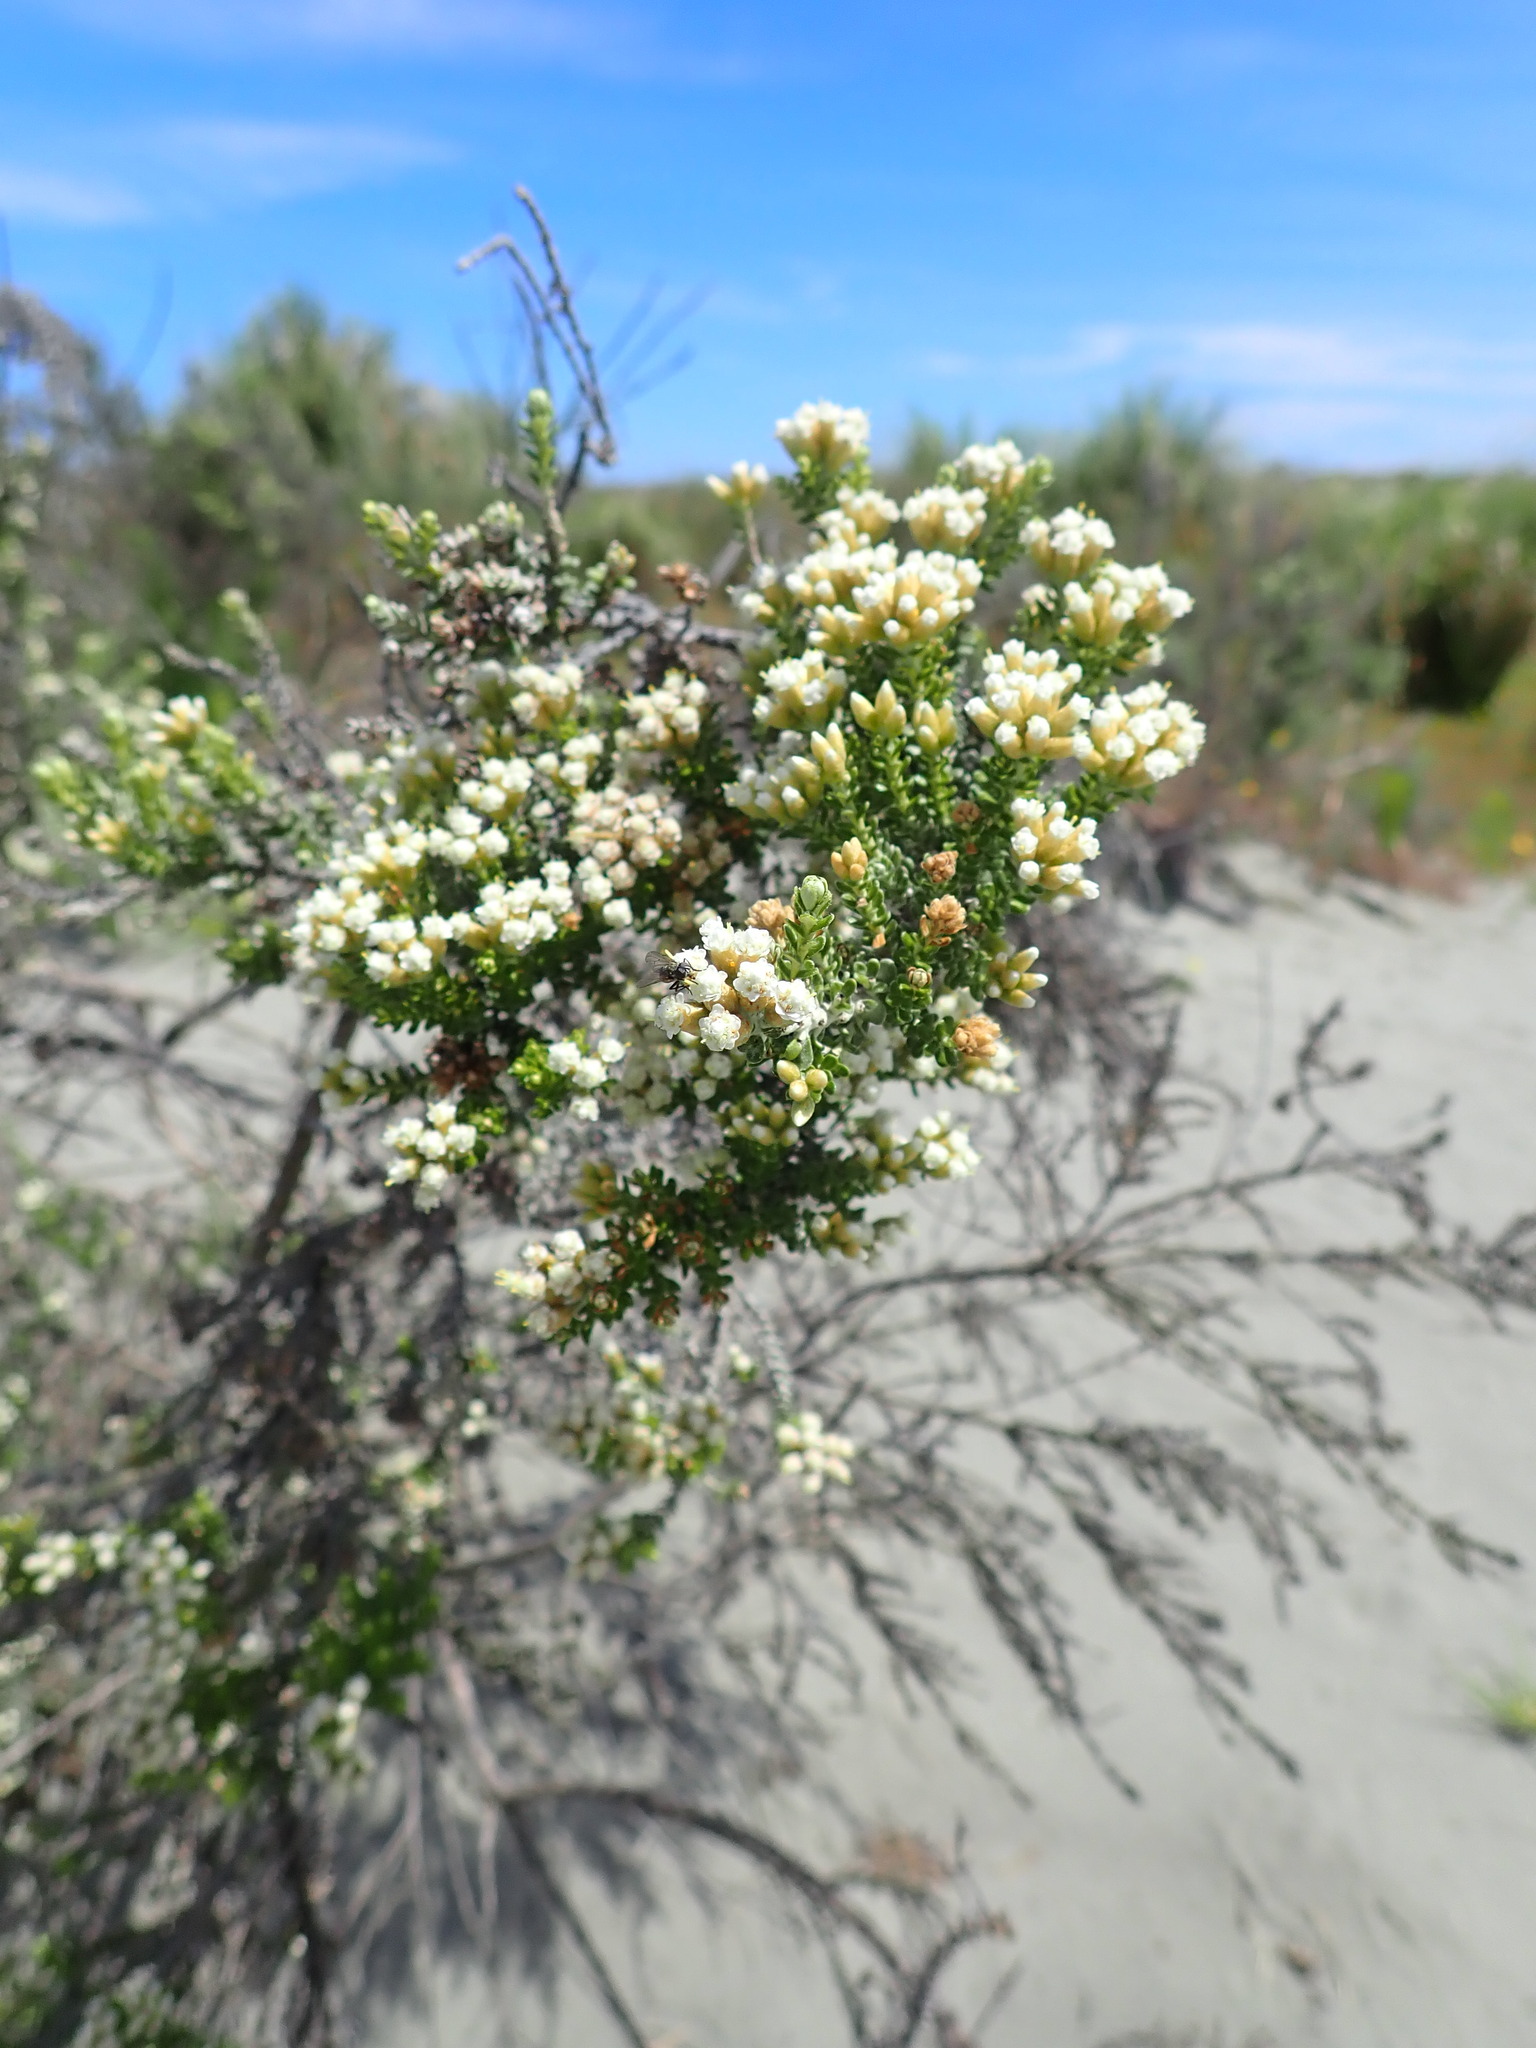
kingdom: Plantae
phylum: Tracheophyta
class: Magnoliopsida
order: Asterales
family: Asteraceae
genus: Ozothamnus
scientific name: Ozothamnus leptophyllus
